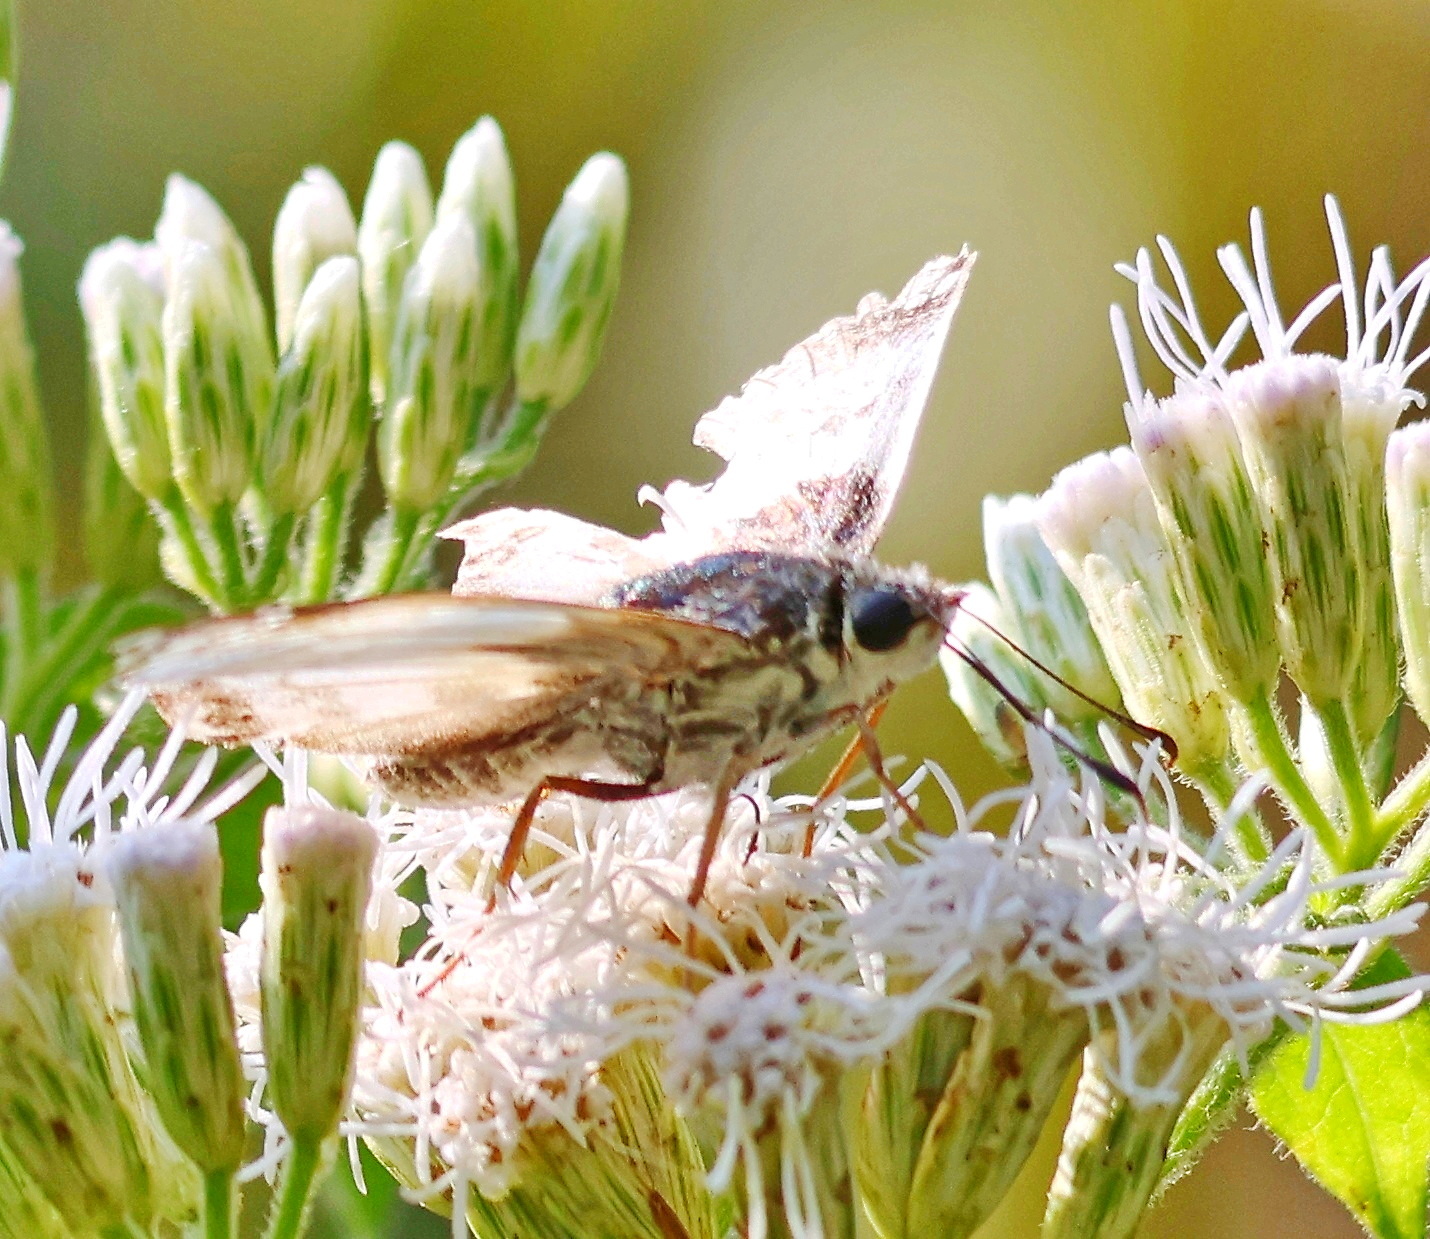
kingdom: Animalia
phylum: Arthropoda
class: Insecta
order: Lepidoptera
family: Hesperiidae
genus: Polyctor
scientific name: Polyctor polyctor
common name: Polyctor tufted-skipper
